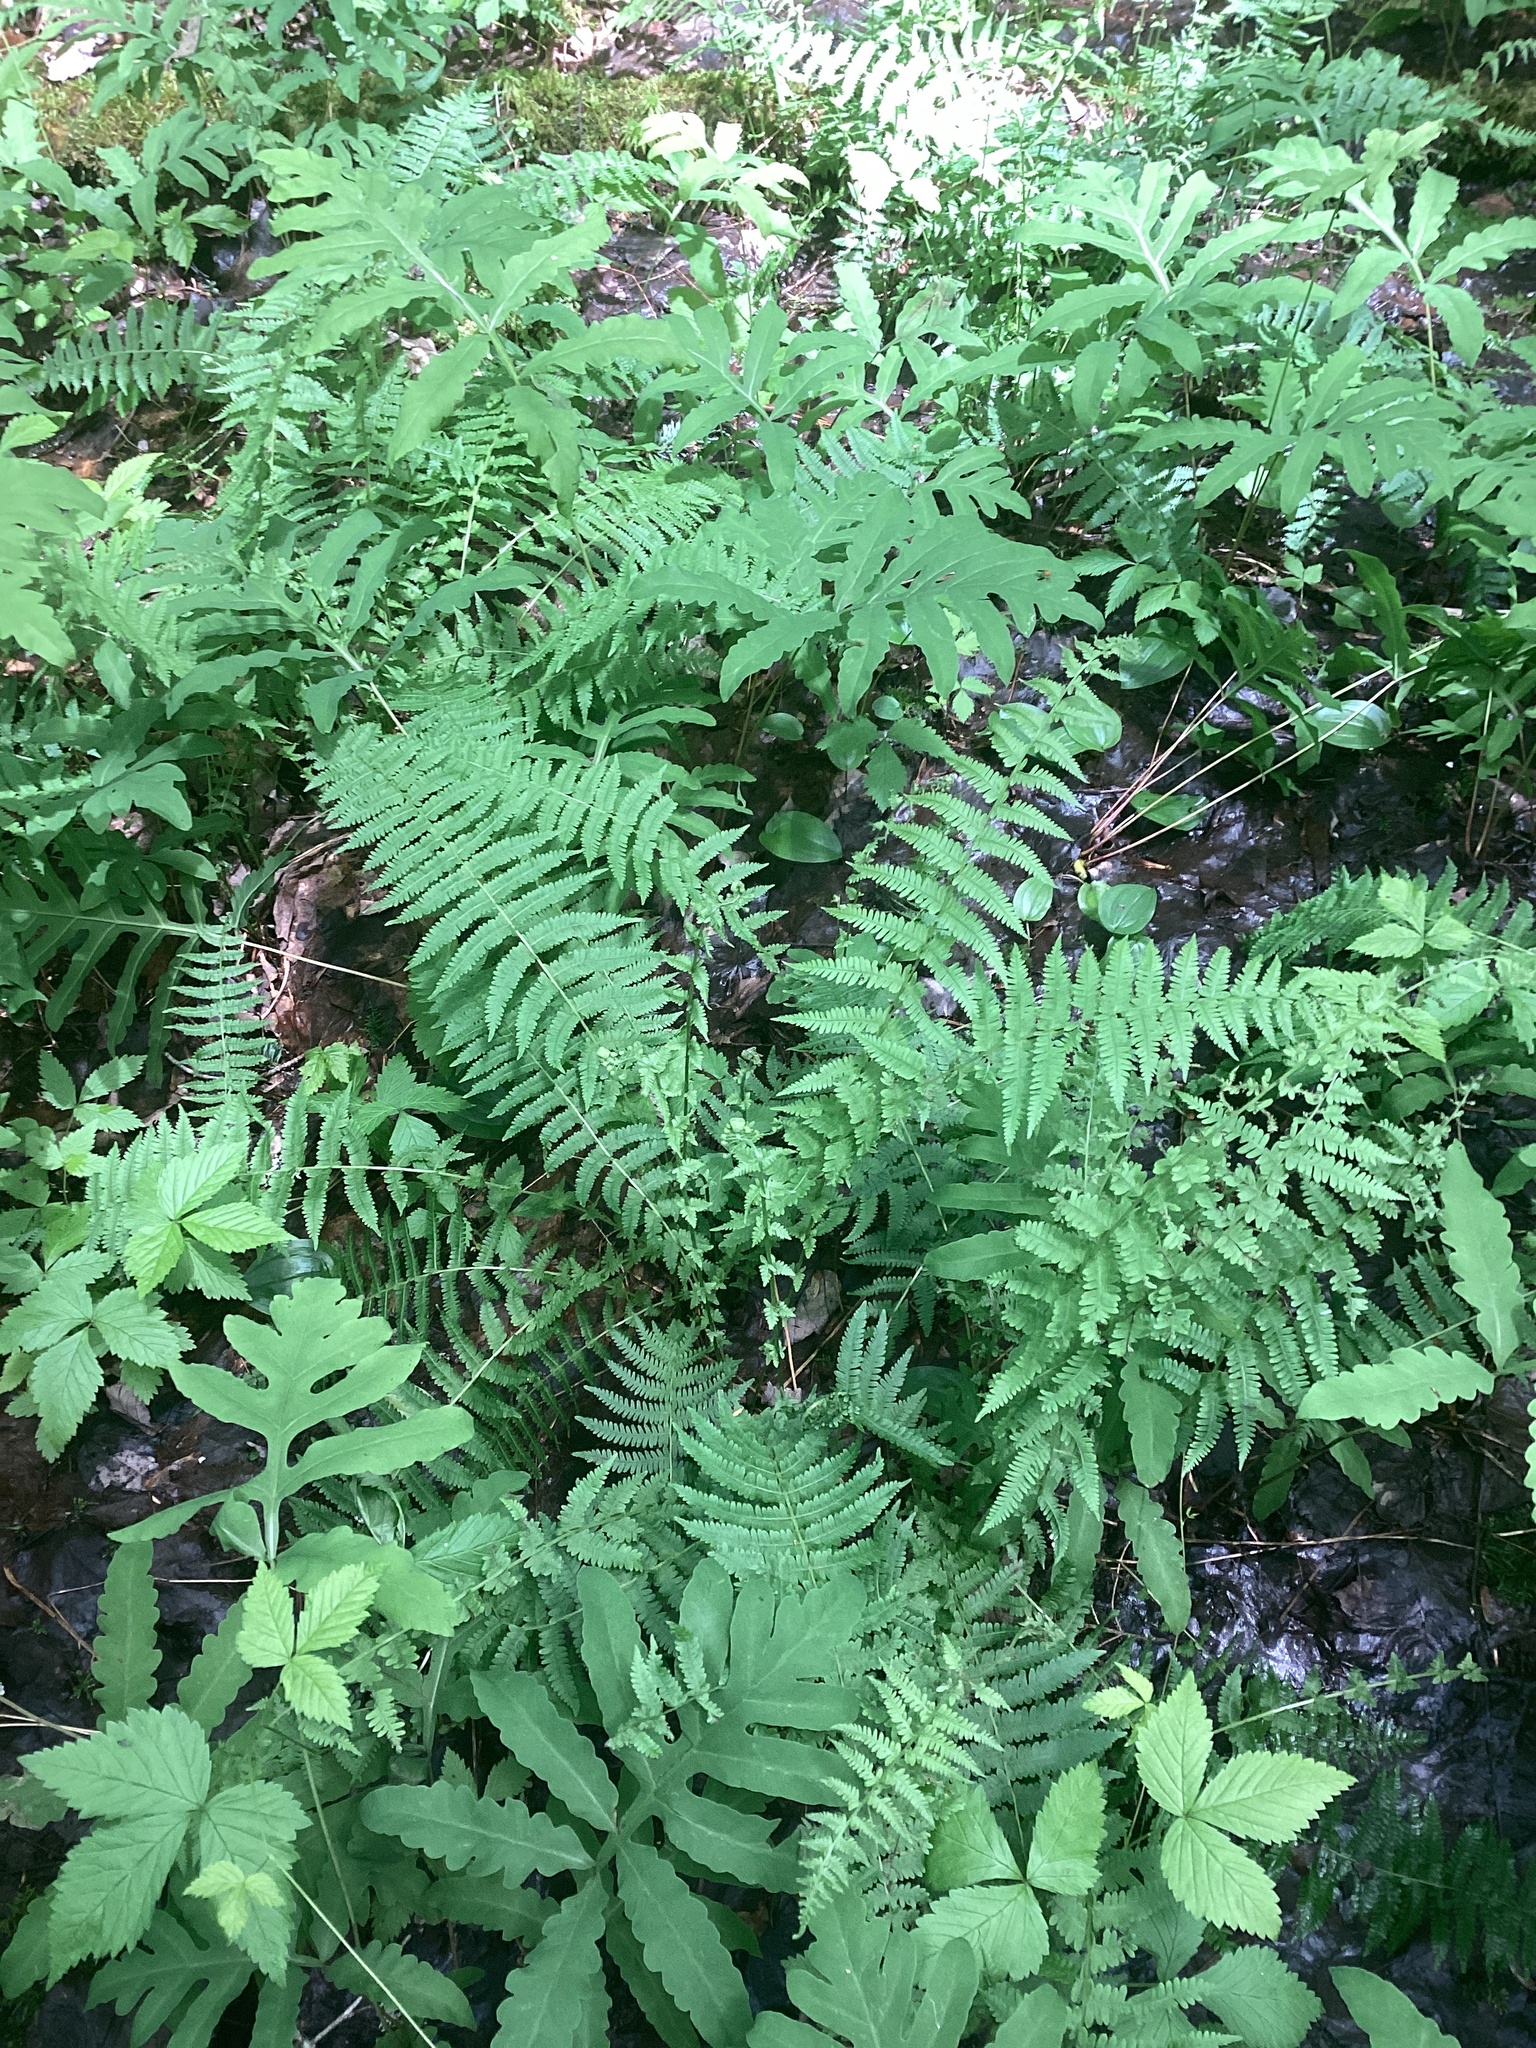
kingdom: Plantae
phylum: Tracheophyta
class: Polypodiopsida
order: Polypodiales
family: Thelypteridaceae
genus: Amauropelta
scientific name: Amauropelta noveboracensis
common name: New york fern
